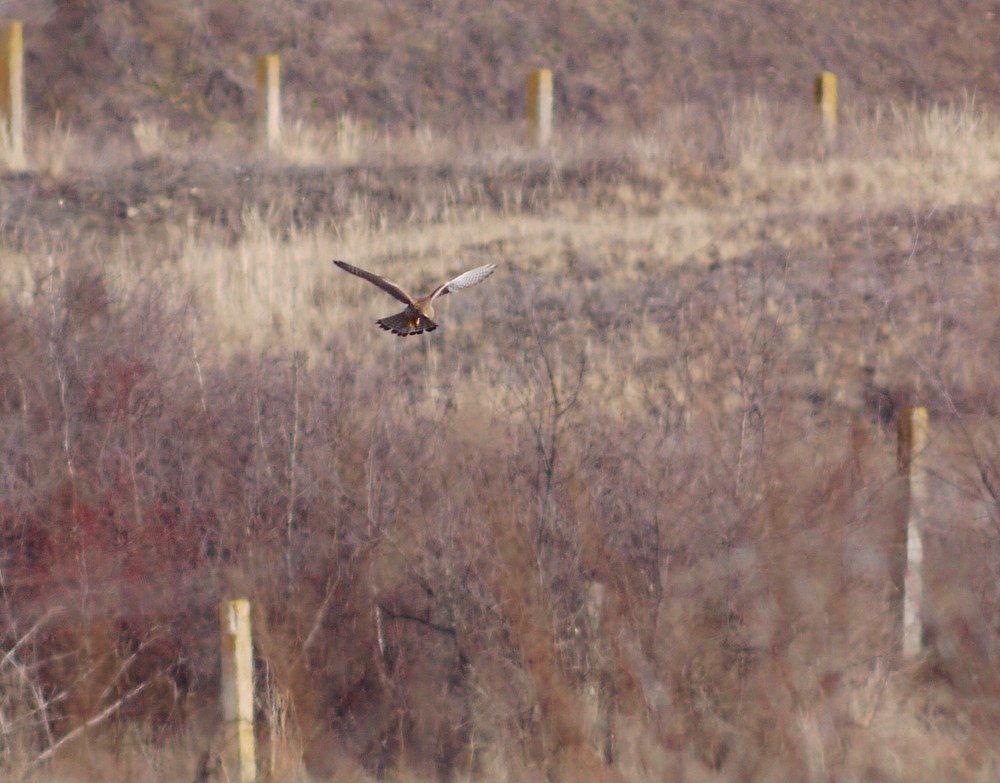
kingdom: Animalia
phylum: Chordata
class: Aves
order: Falconiformes
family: Falconidae
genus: Falco
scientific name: Falco tinnunculus
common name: Common kestrel
